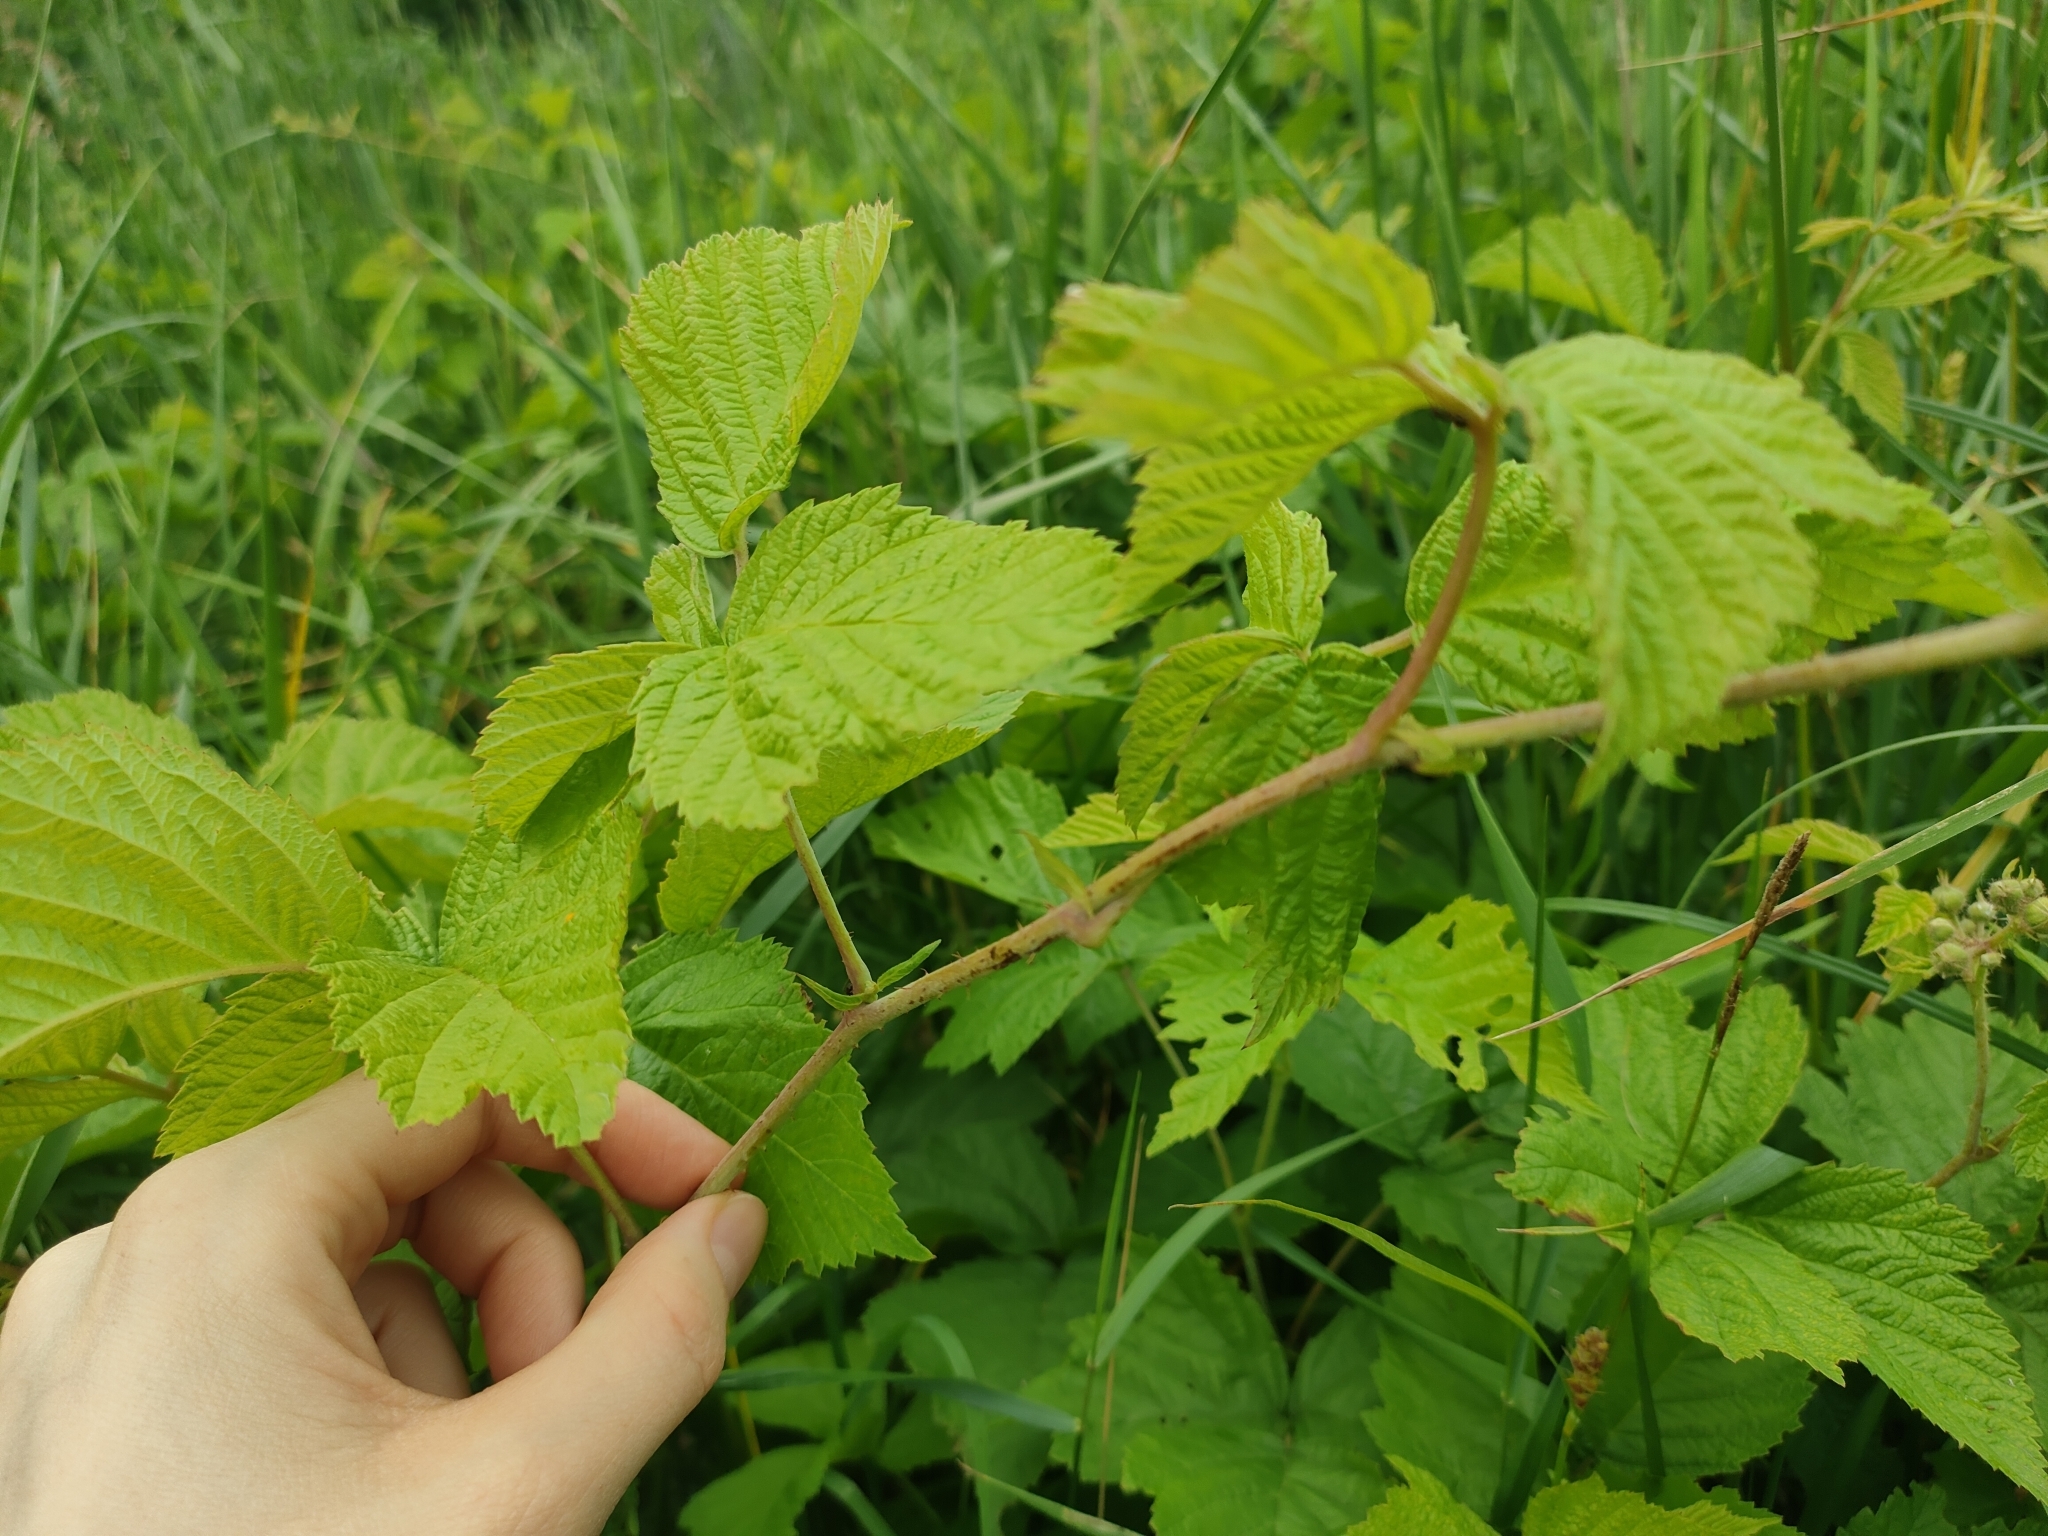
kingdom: Plantae
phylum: Tracheophyta
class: Magnoliopsida
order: Rosales
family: Rosaceae
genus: Rubus
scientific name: Rubus caesius
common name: Dewberry
